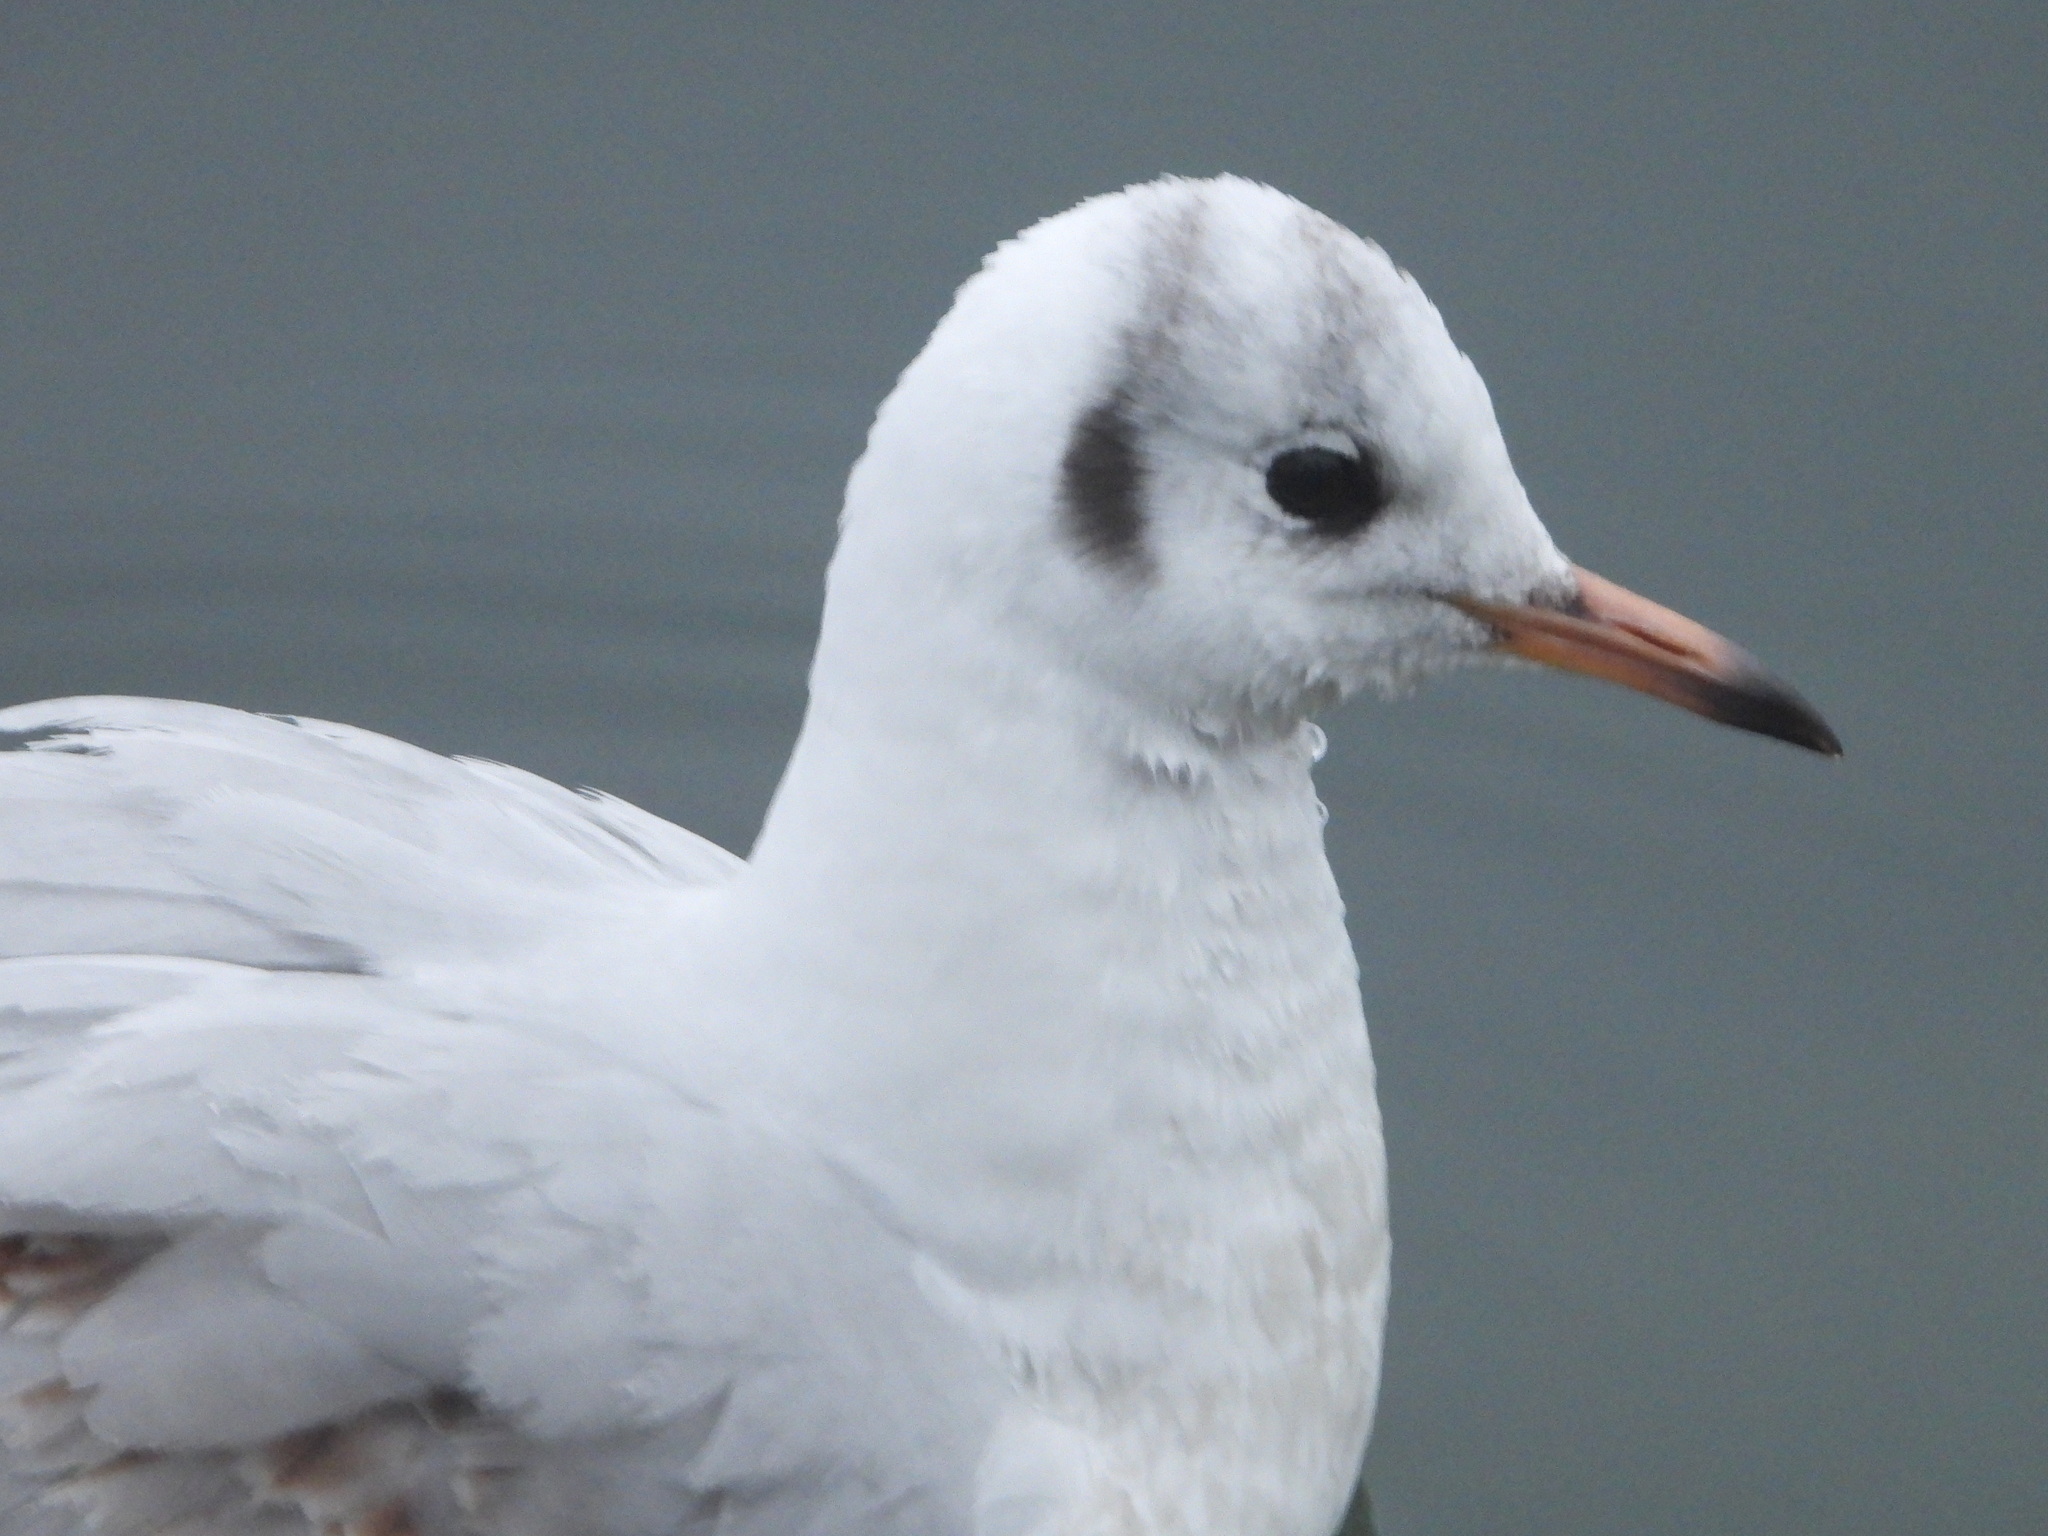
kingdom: Animalia
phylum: Chordata
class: Aves
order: Charadriiformes
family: Laridae
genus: Chroicocephalus
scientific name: Chroicocephalus ridibundus
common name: Black-headed gull
